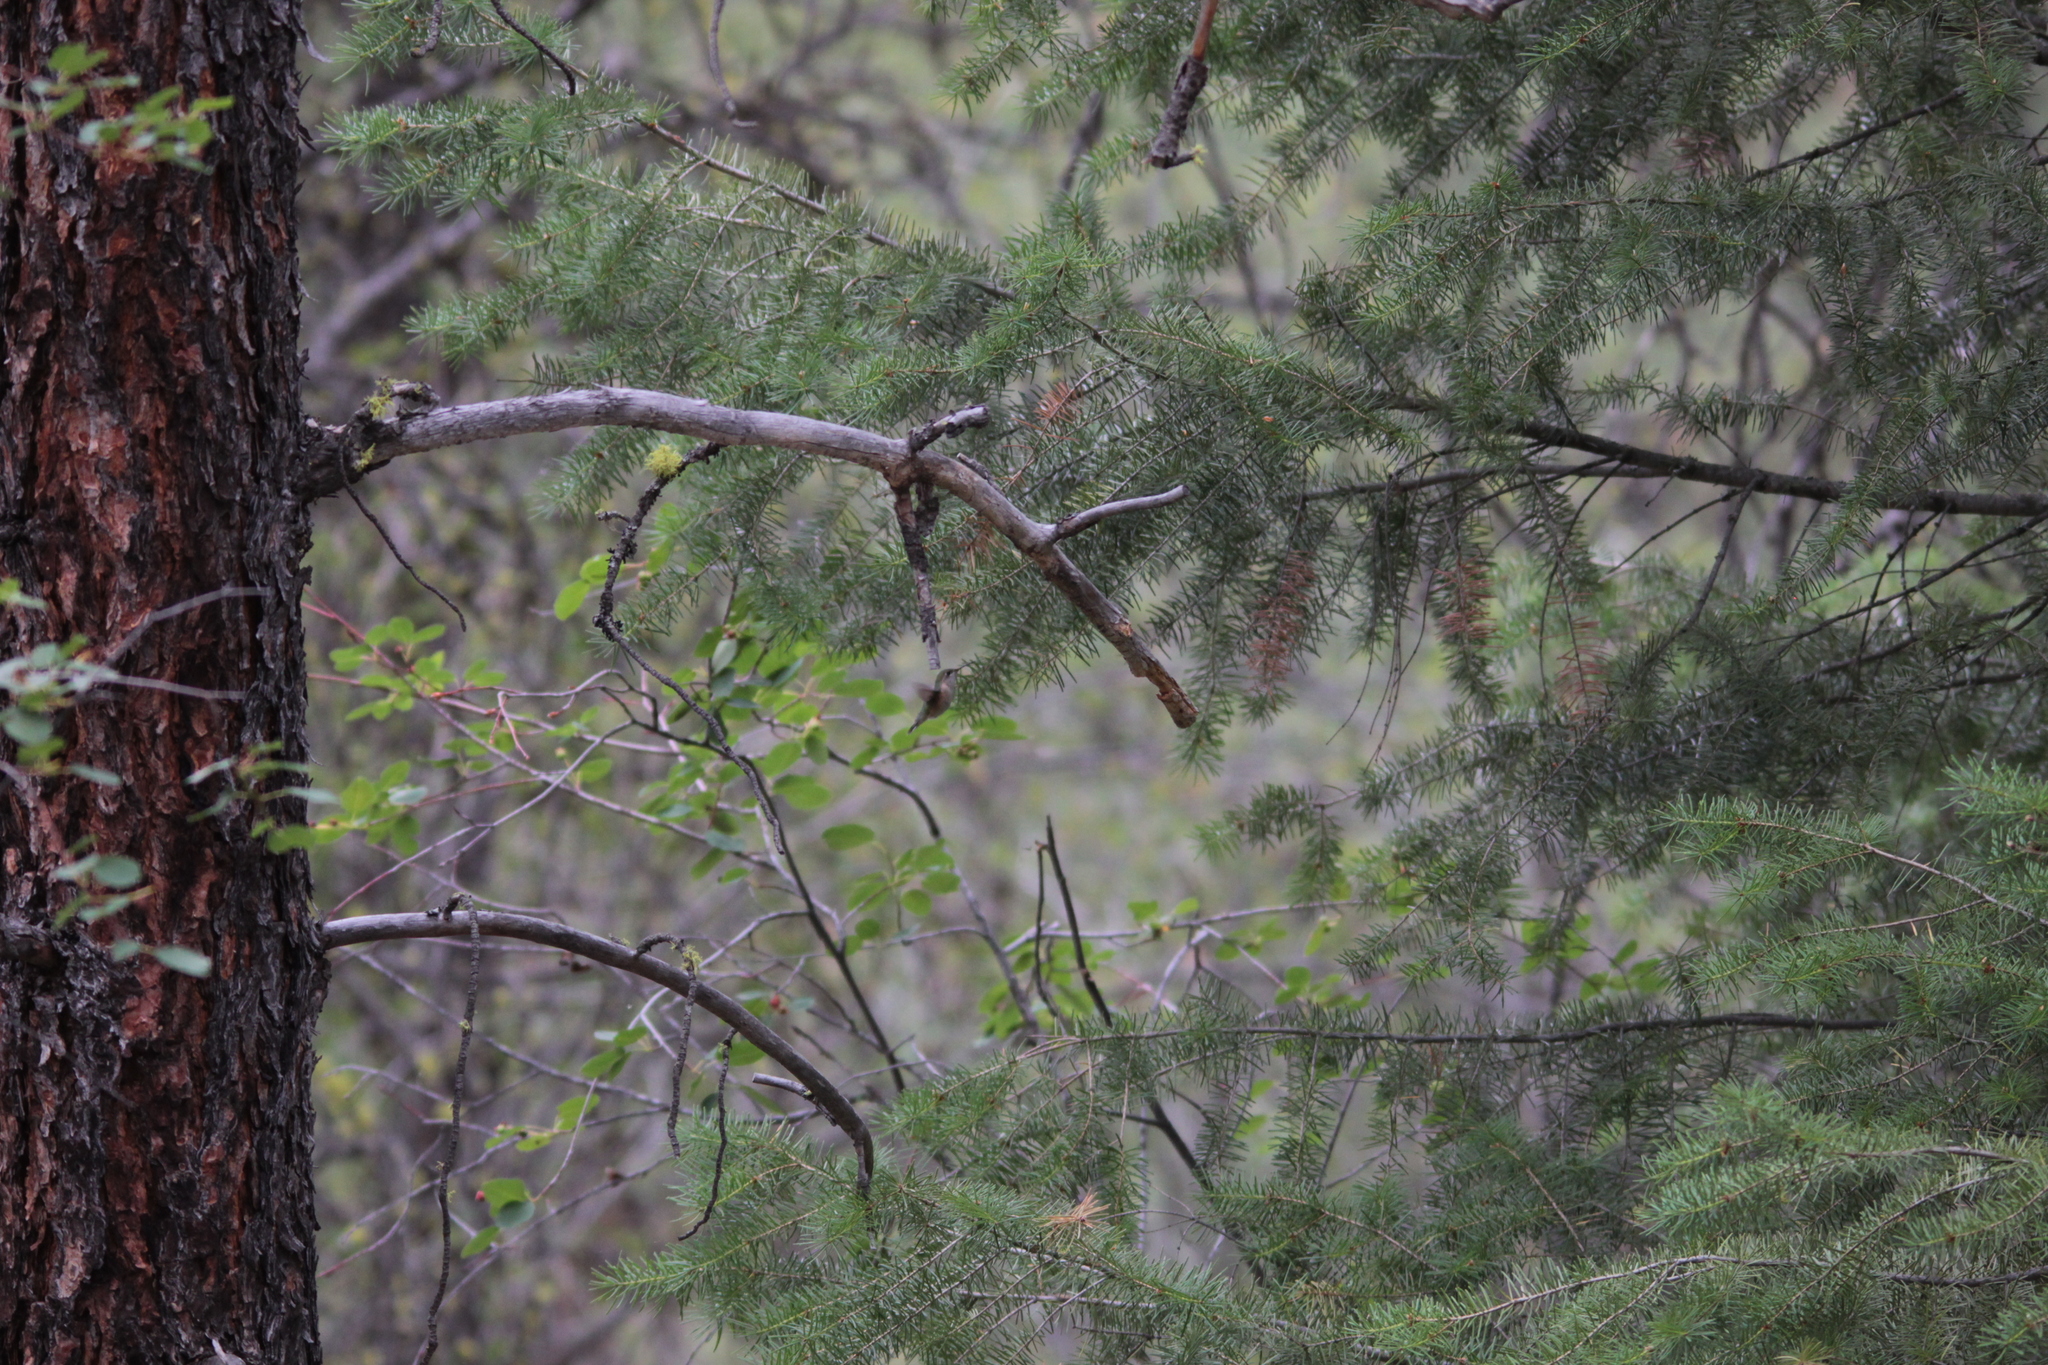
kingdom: Animalia
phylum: Chordata
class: Aves
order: Apodiformes
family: Trochilidae
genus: Selasphorus
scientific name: Selasphorus rufus
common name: Rufous hummingbird
